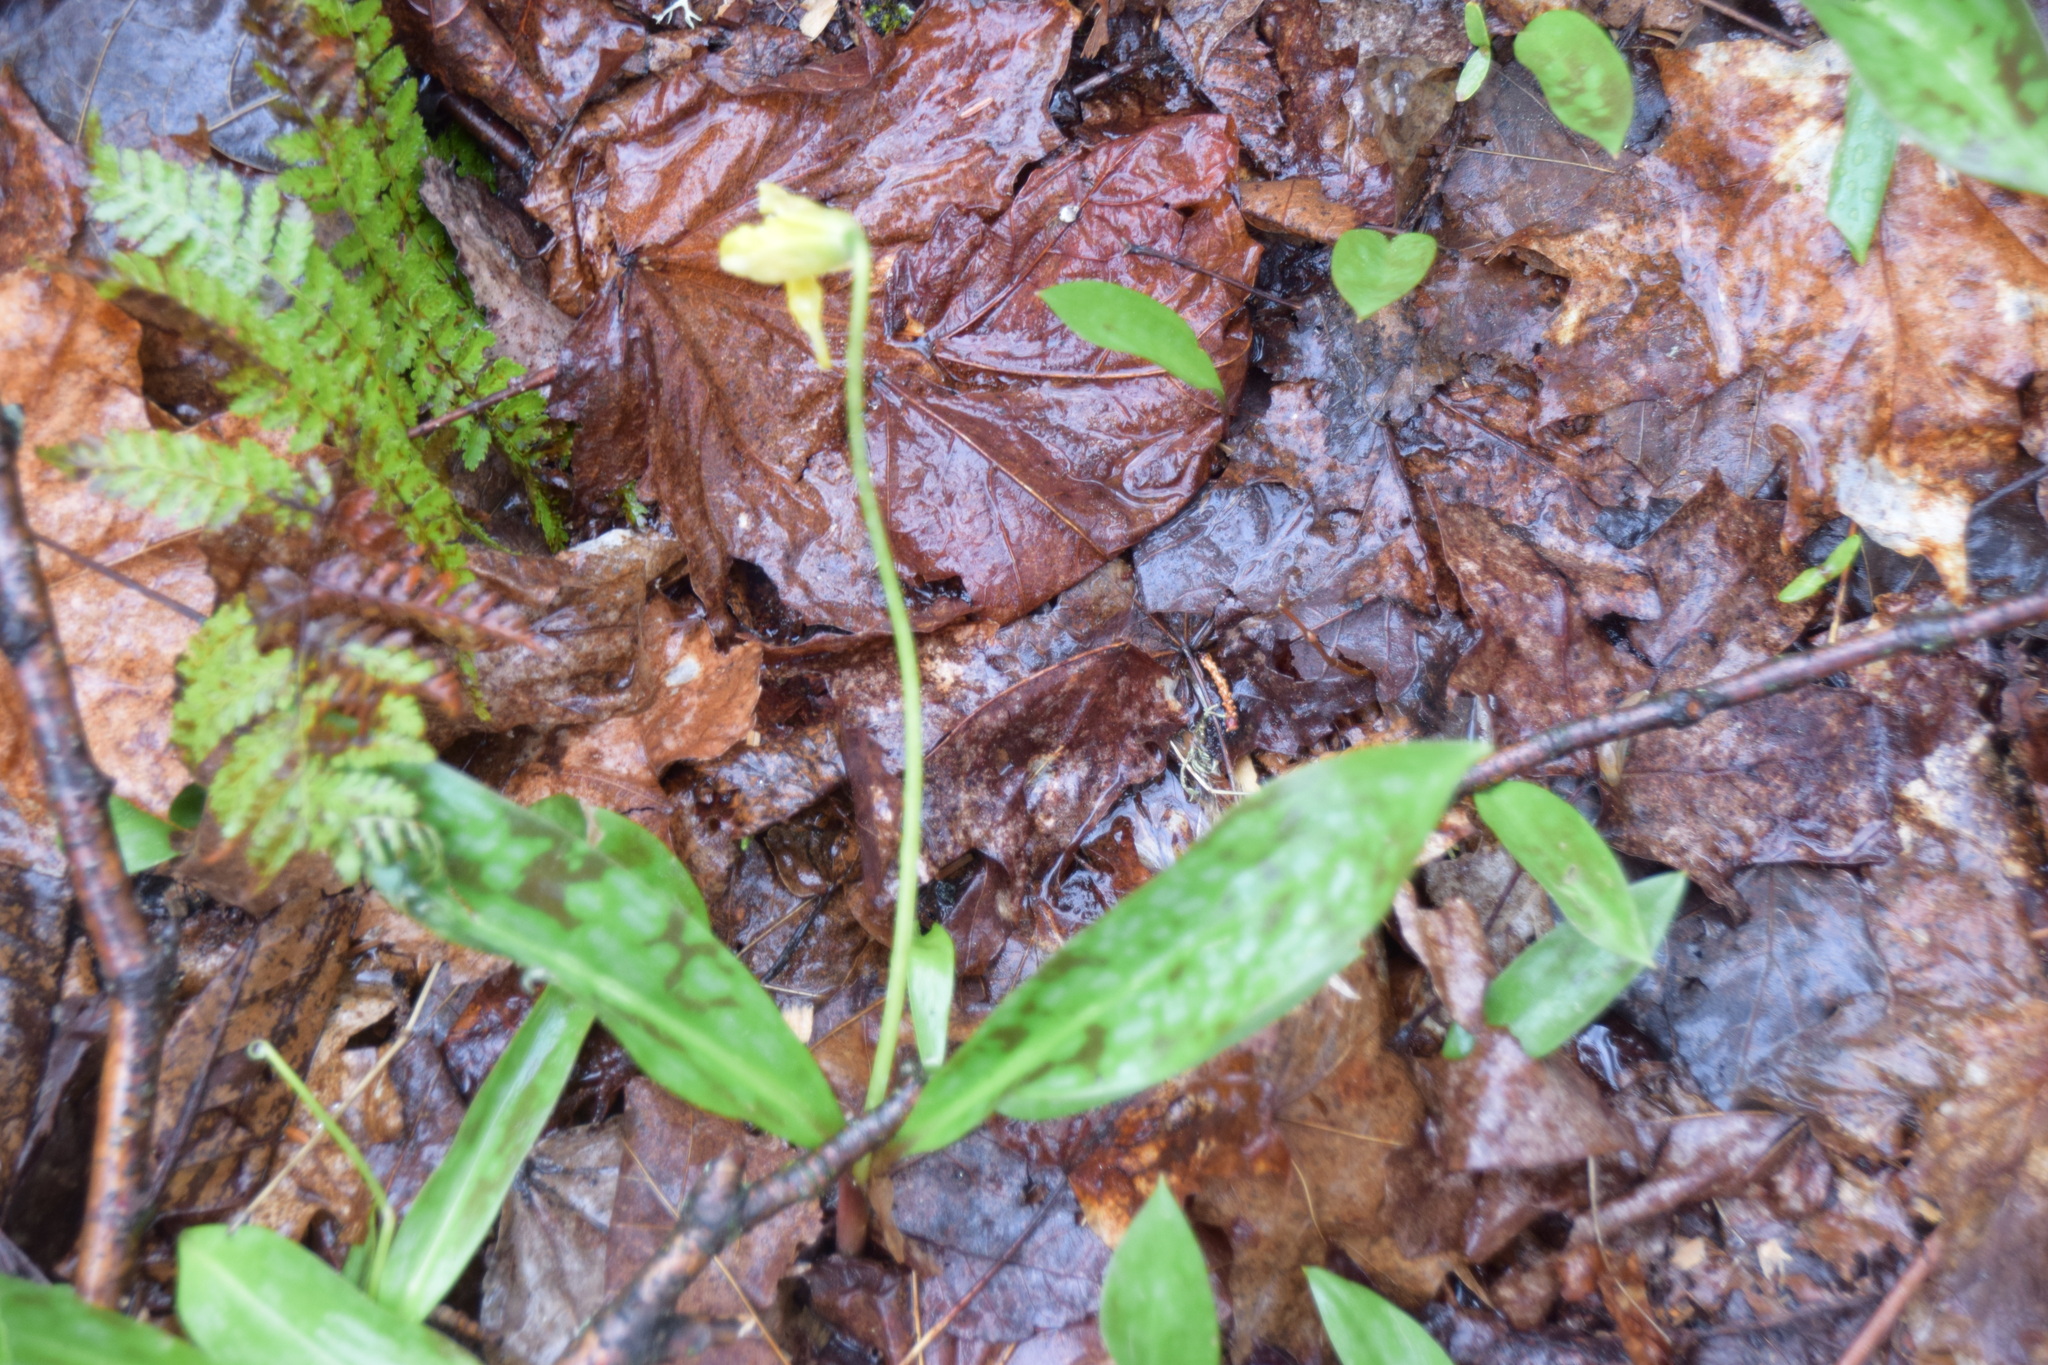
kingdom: Plantae
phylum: Tracheophyta
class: Liliopsida
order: Liliales
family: Liliaceae
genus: Erythronium
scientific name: Erythronium americanum
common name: Yellow adder's-tongue
